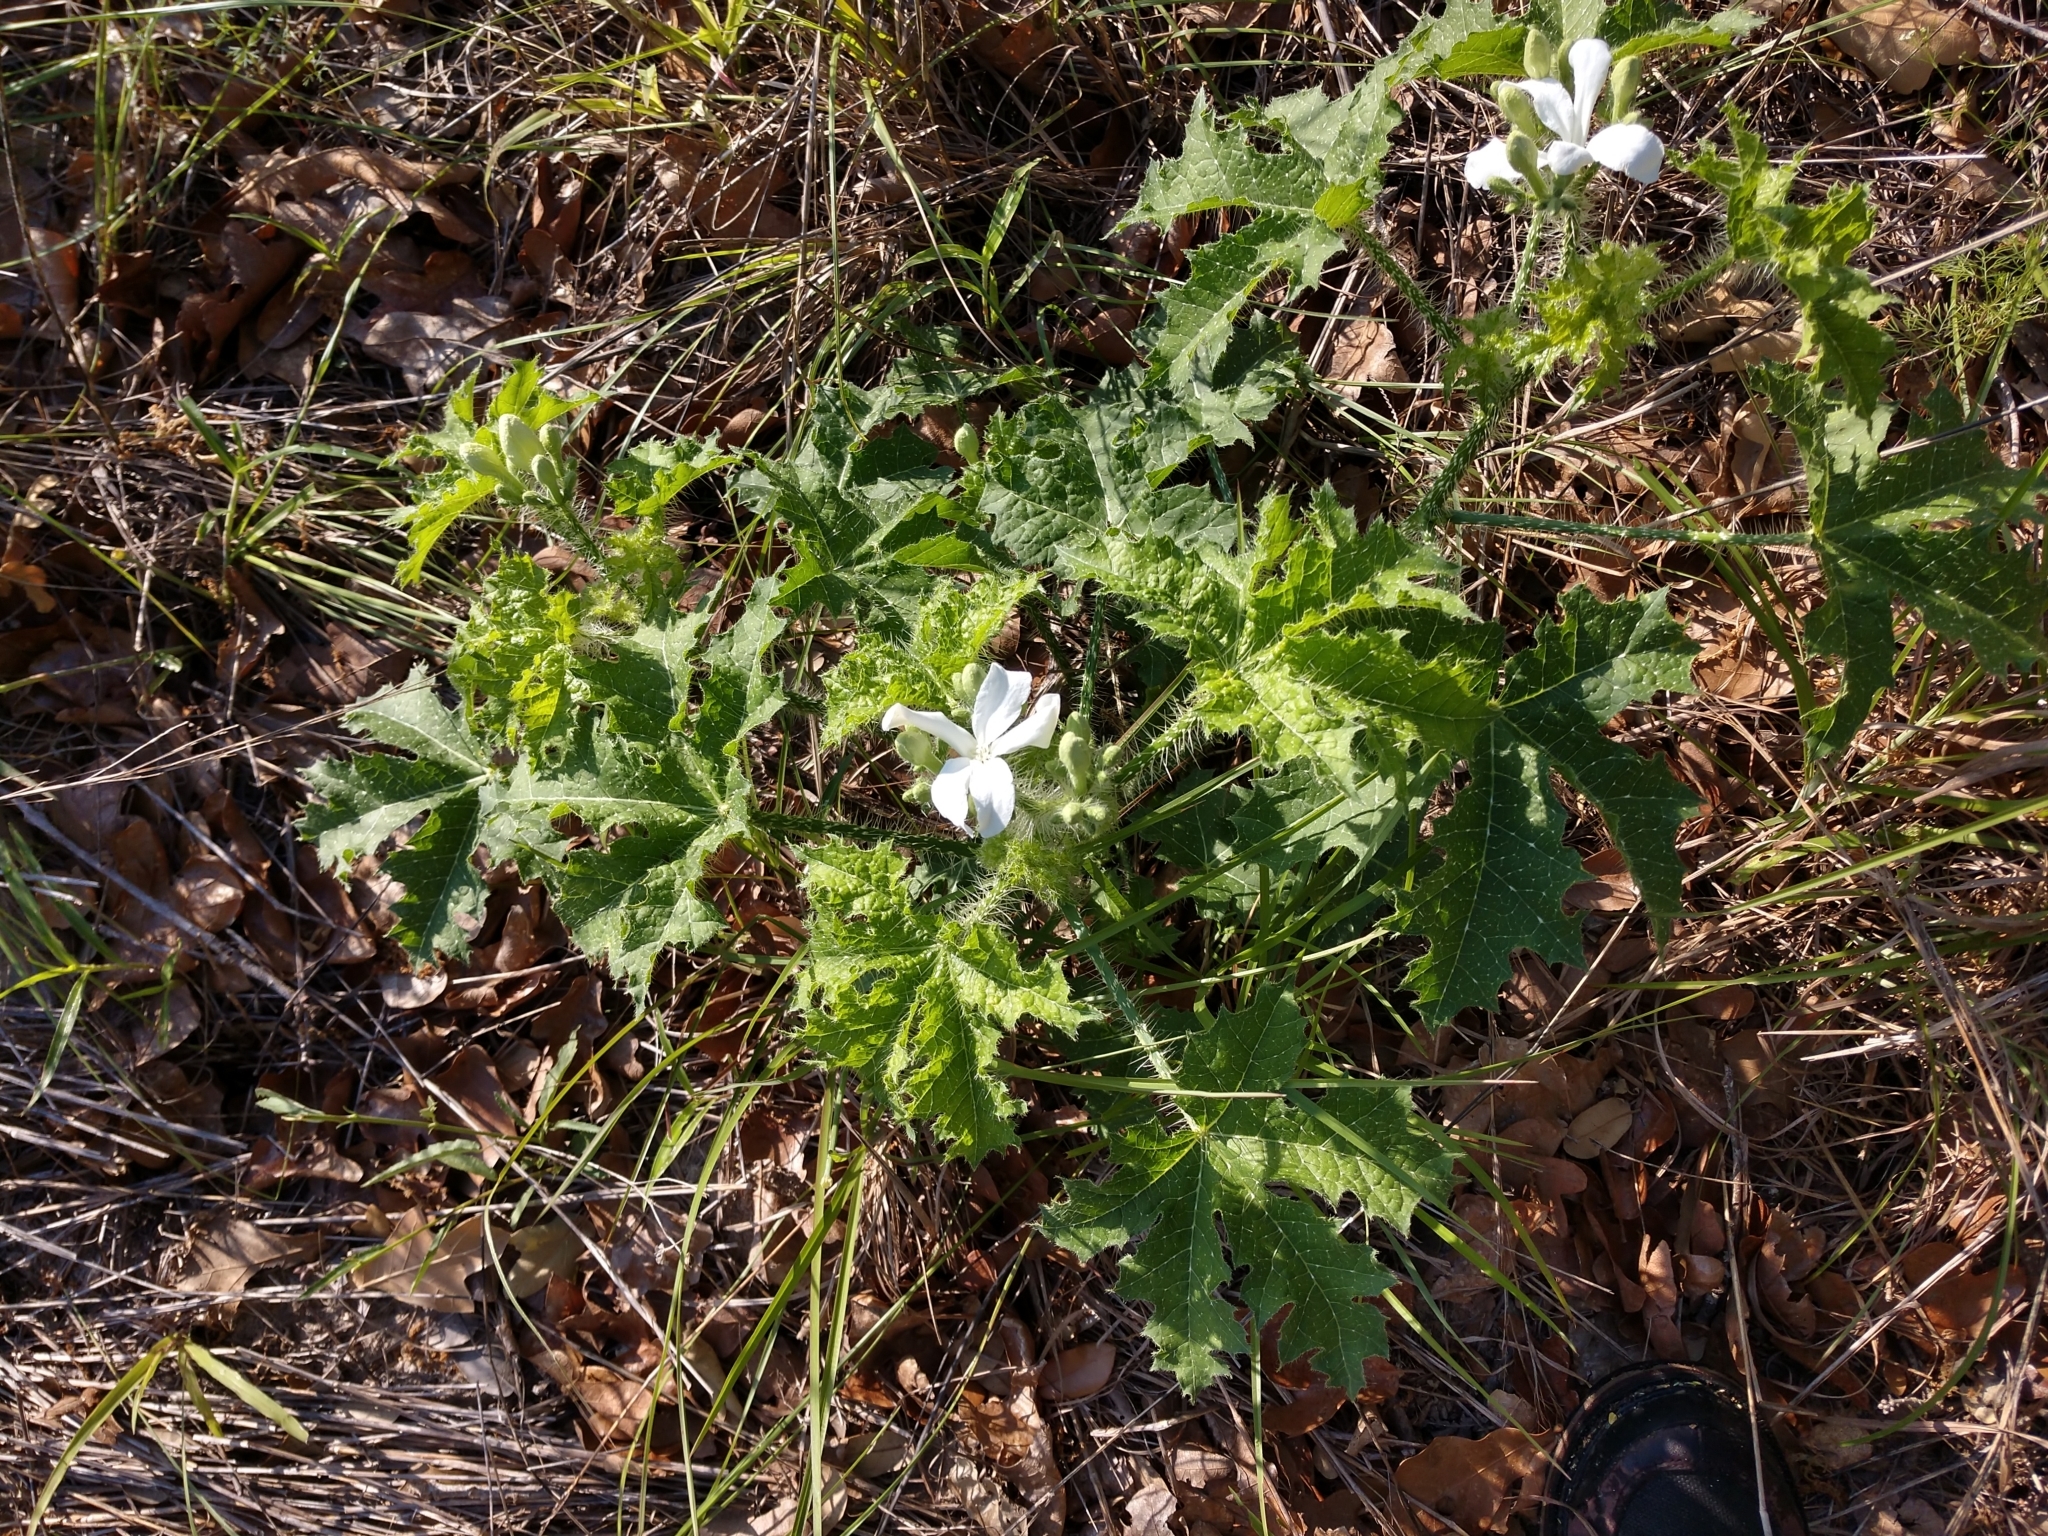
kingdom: Plantae
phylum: Tracheophyta
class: Magnoliopsida
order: Malpighiales
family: Euphorbiaceae
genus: Cnidoscolus
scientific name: Cnidoscolus texanus
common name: Texas bull-nettle
